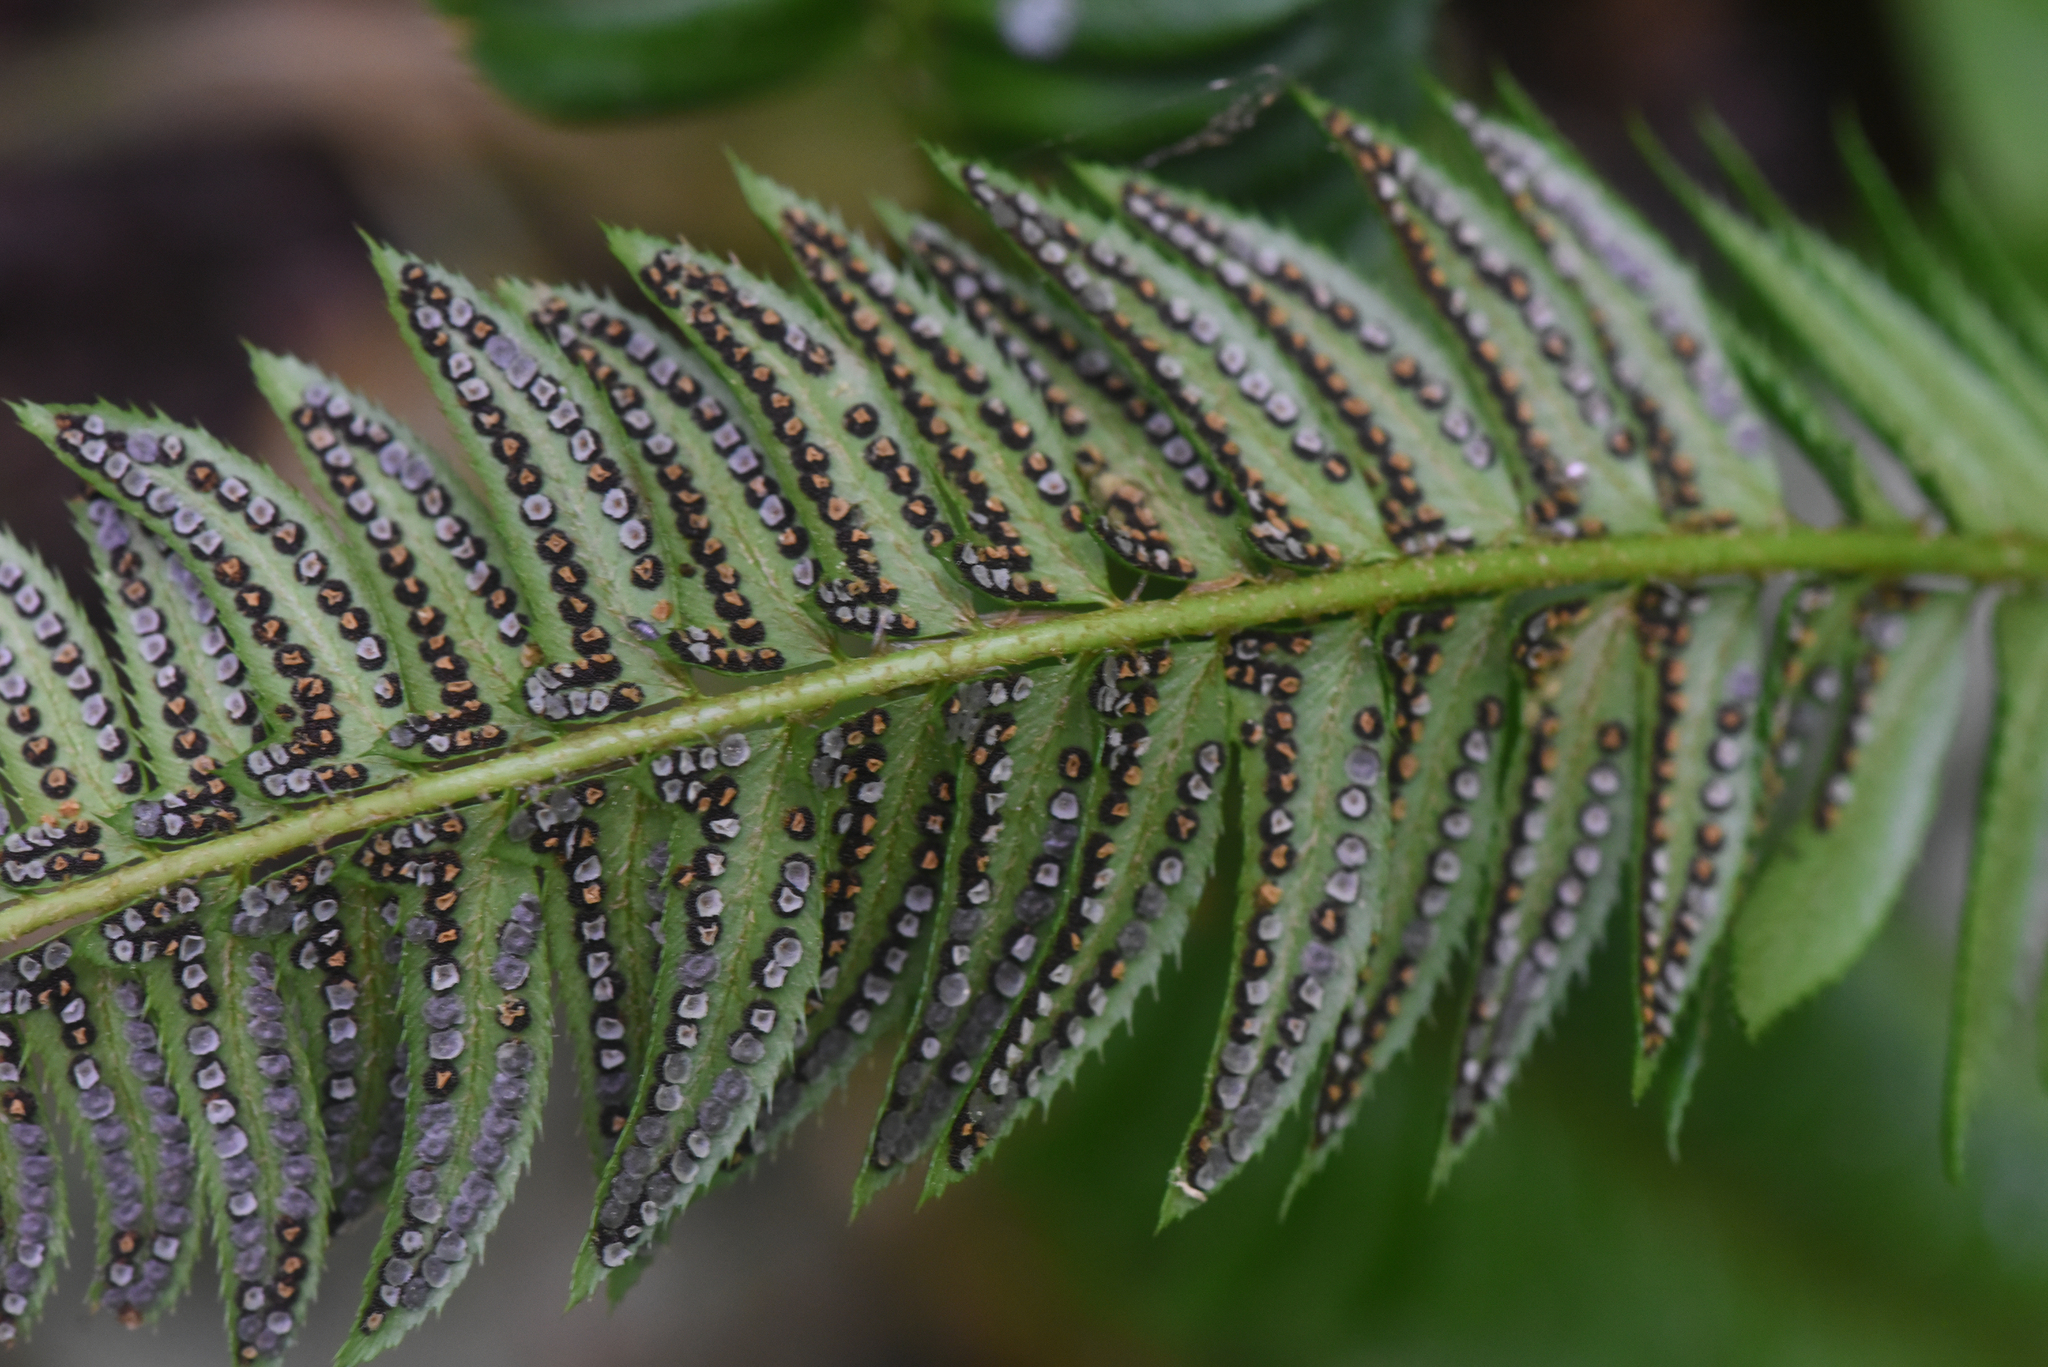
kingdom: Plantae
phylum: Tracheophyta
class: Polypodiopsida
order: Polypodiales
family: Dryopteridaceae
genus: Polystichum
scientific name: Polystichum lonchitis
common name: Holly fern
